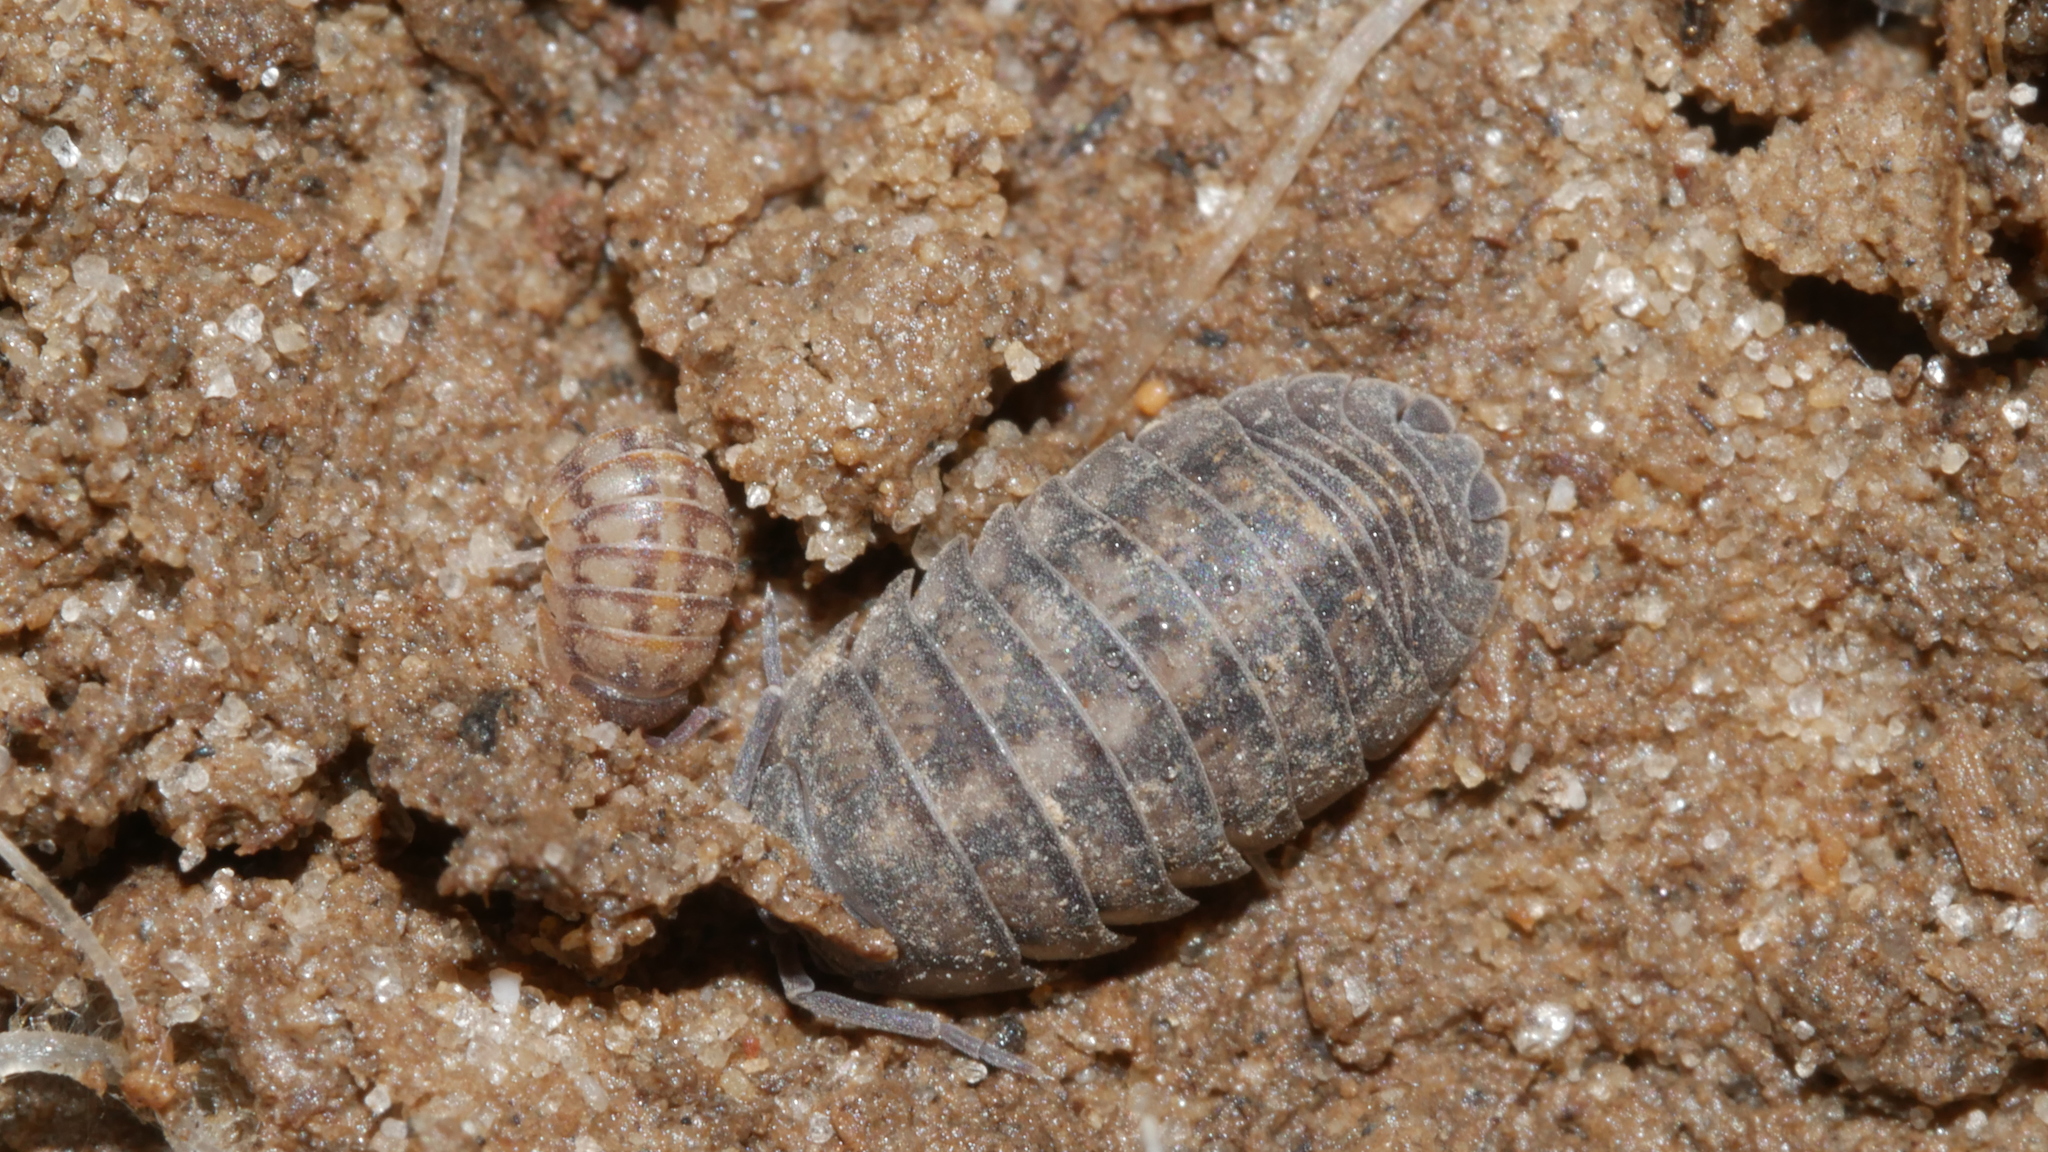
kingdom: Animalia
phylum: Arthropoda
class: Malacostraca
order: Isopoda
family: Armadillidiidae
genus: Armadillidium
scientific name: Armadillidium nasatum
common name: Isopod
